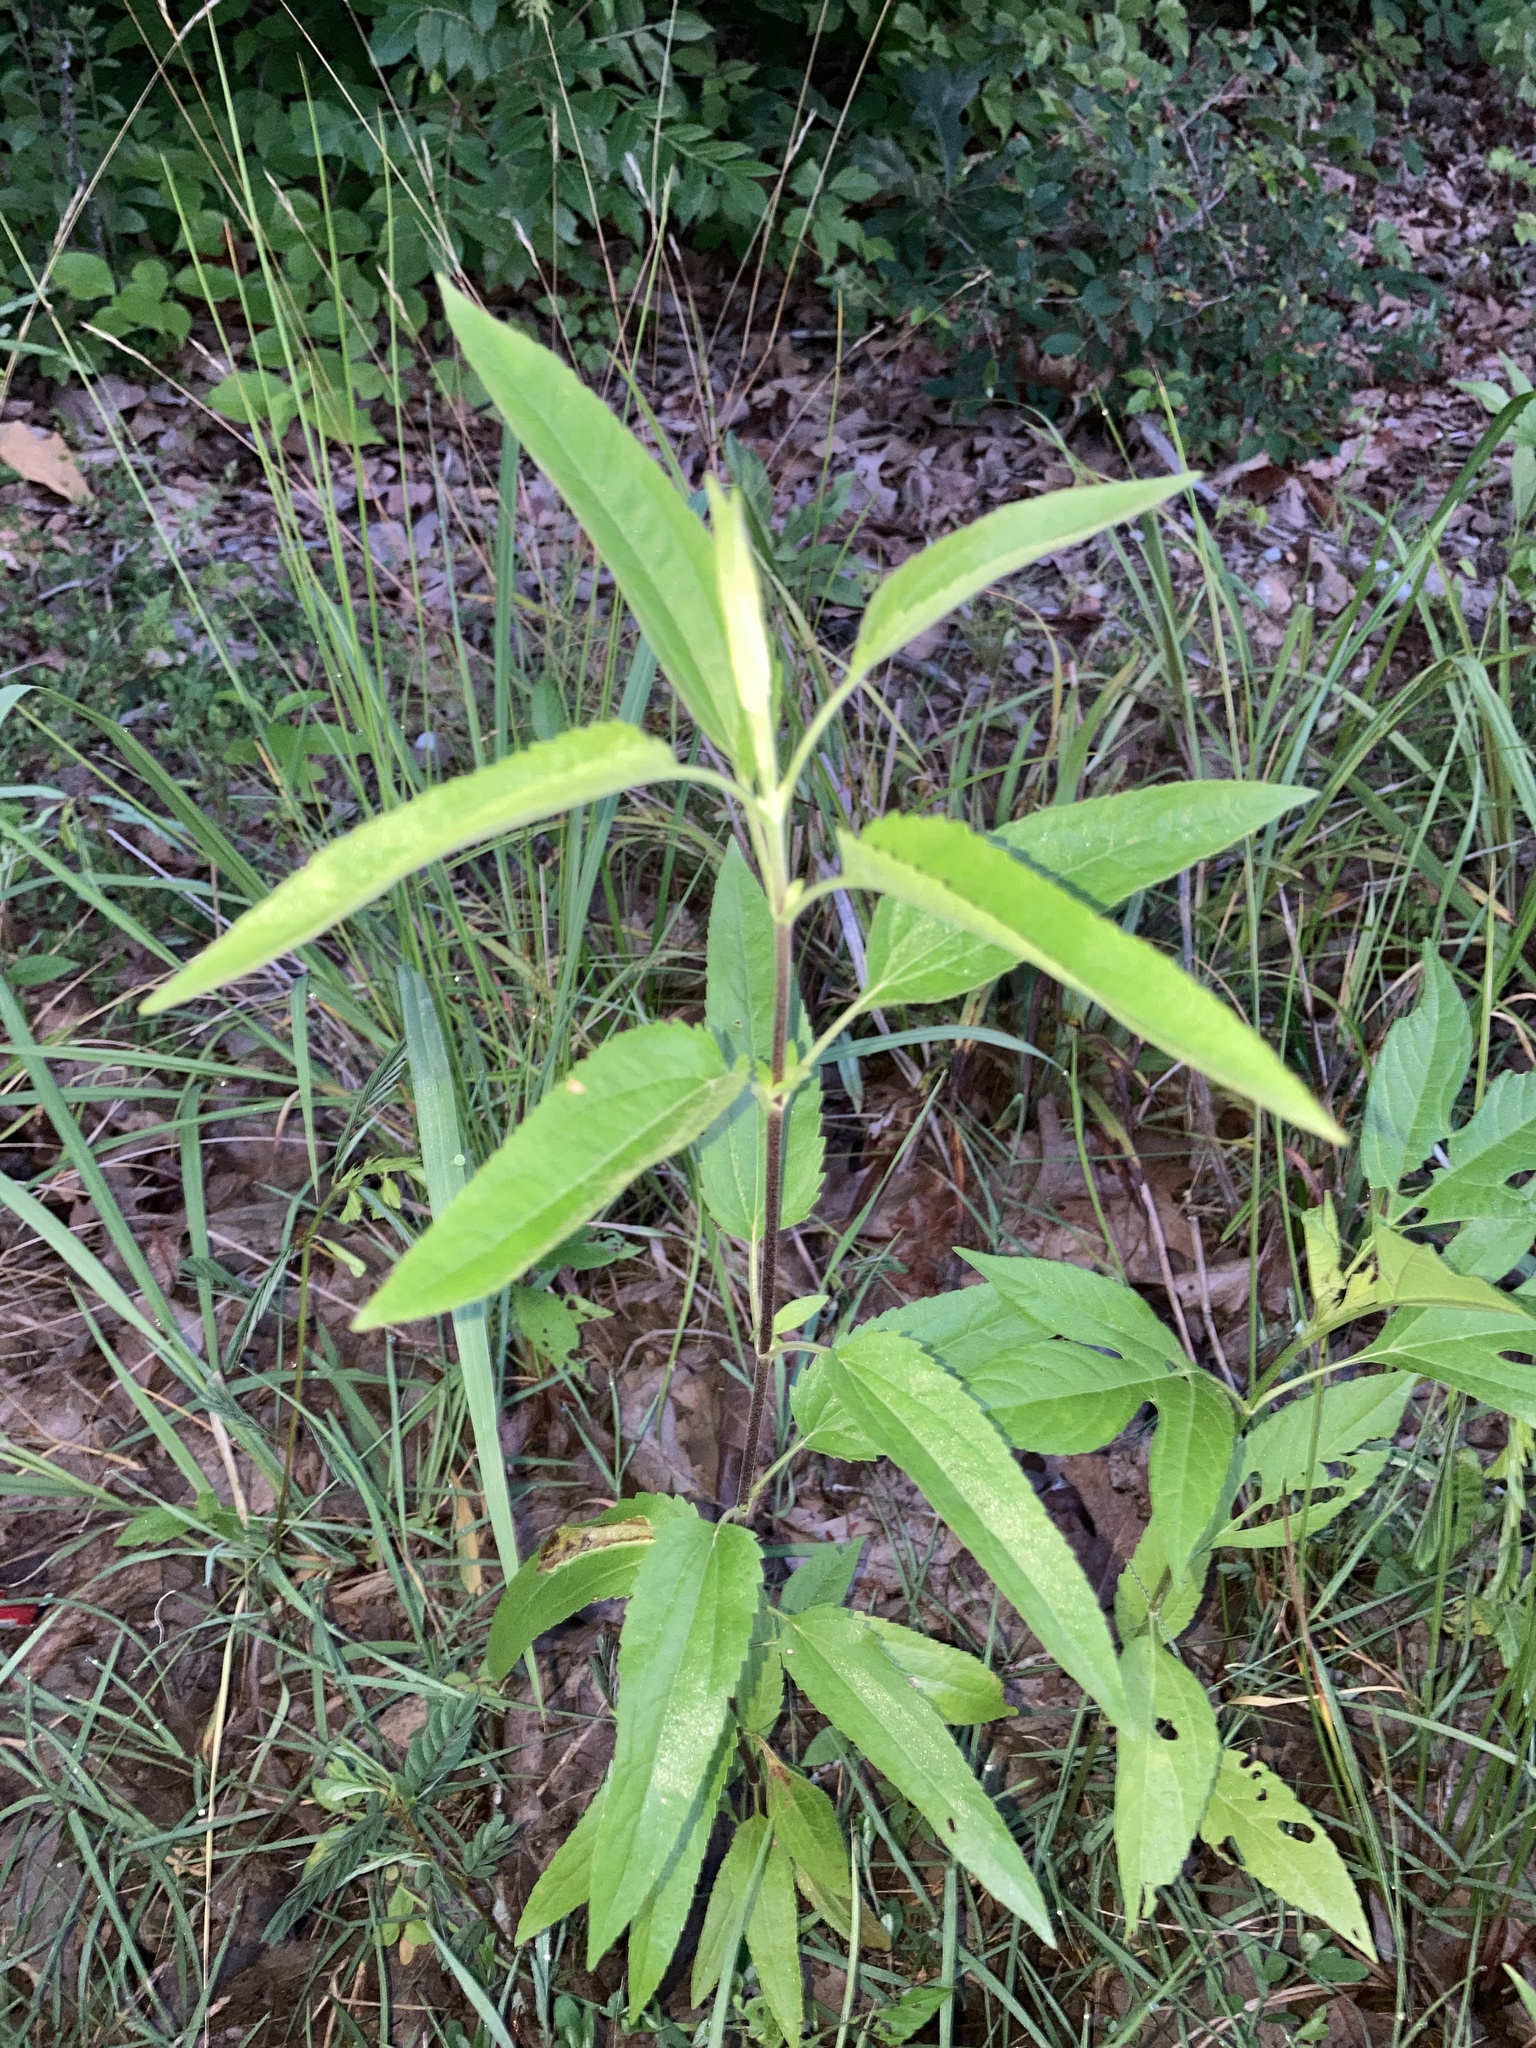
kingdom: Plantae
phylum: Tracheophyta
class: Magnoliopsida
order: Asterales
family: Asteraceae
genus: Eupatorium
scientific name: Eupatorium serotinum
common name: Late boneset
